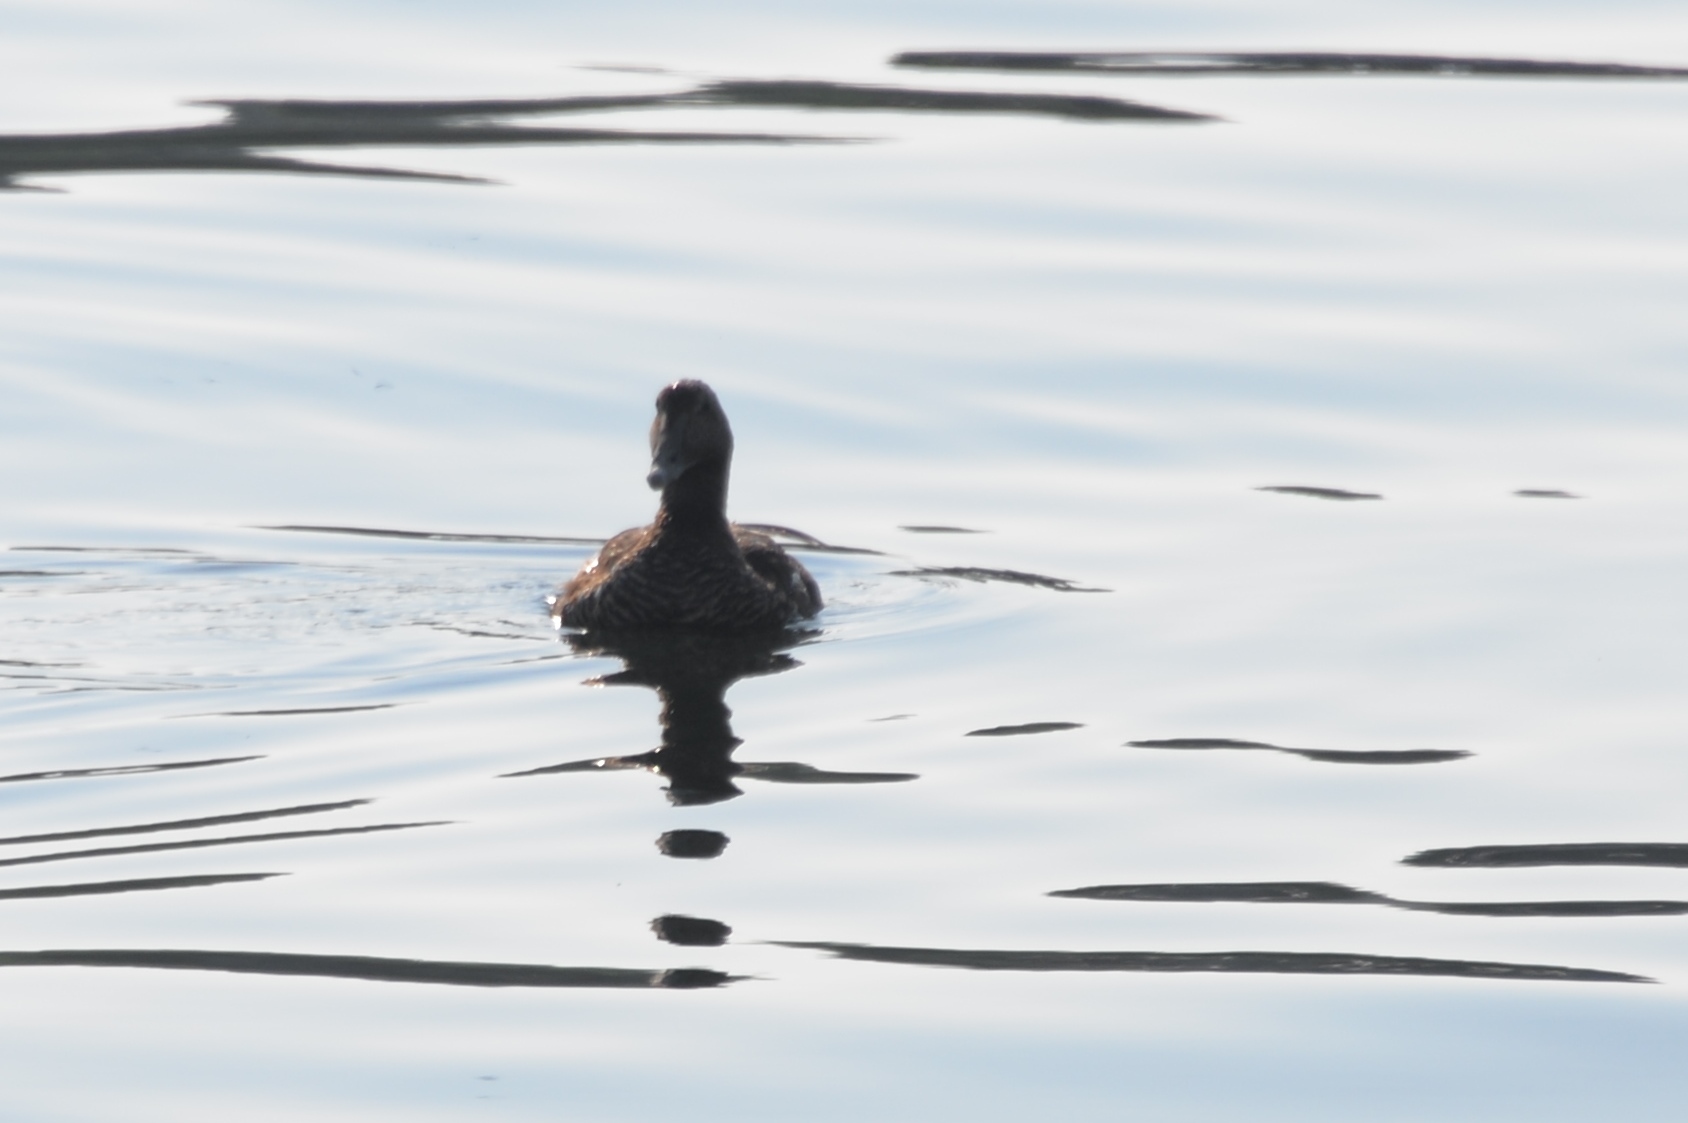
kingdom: Animalia
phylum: Chordata
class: Aves
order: Anseriformes
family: Anatidae
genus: Somateria
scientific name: Somateria mollissima
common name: Common eider
